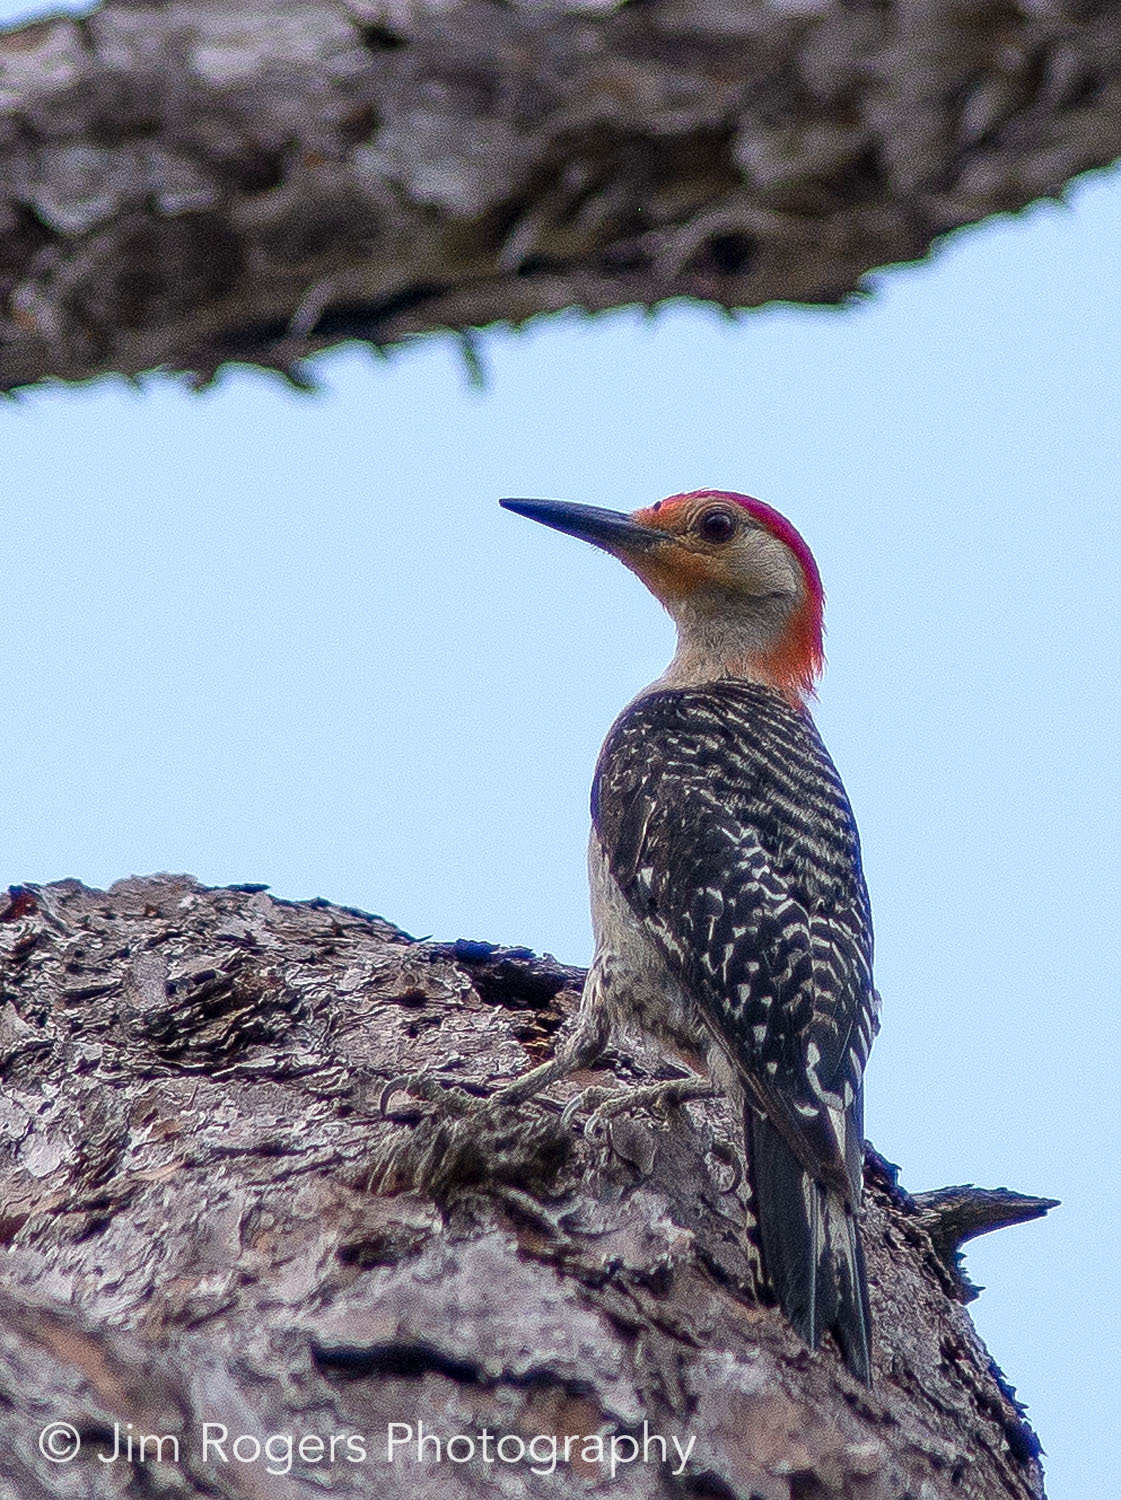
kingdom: Animalia
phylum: Chordata
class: Aves
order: Piciformes
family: Picidae
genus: Melanerpes
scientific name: Melanerpes carolinus
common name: Red-bellied woodpecker
